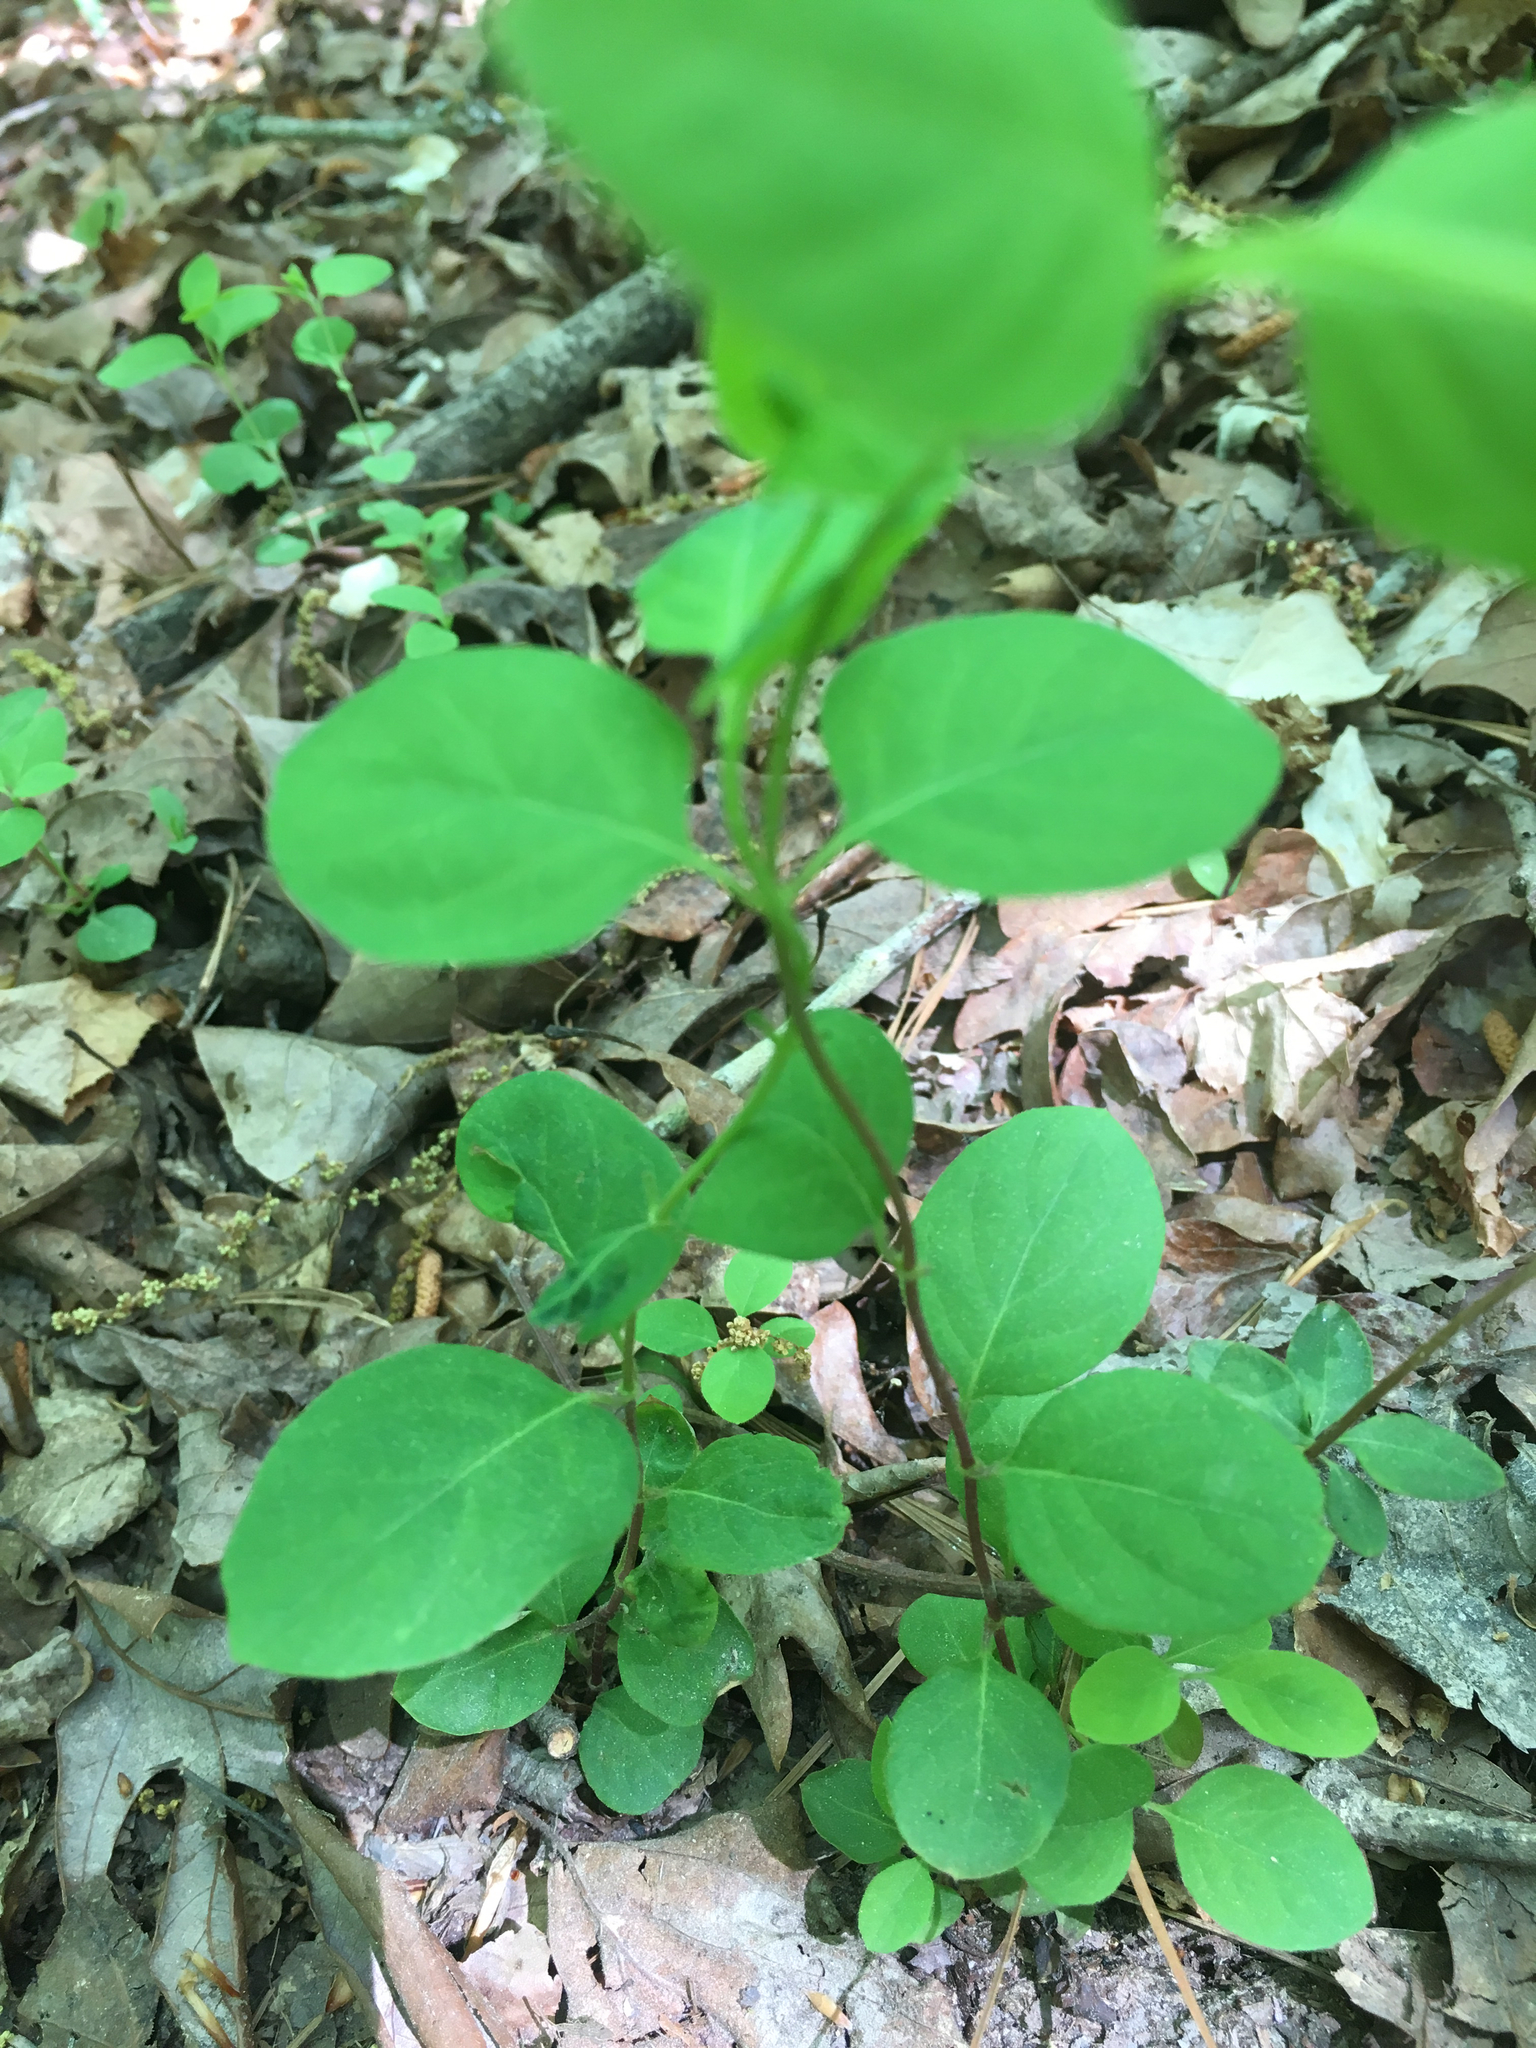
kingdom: Plantae
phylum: Tracheophyta
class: Magnoliopsida
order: Dipsacales
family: Caprifoliaceae
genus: Lonicera
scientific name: Lonicera japonica
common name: Japanese honeysuckle
